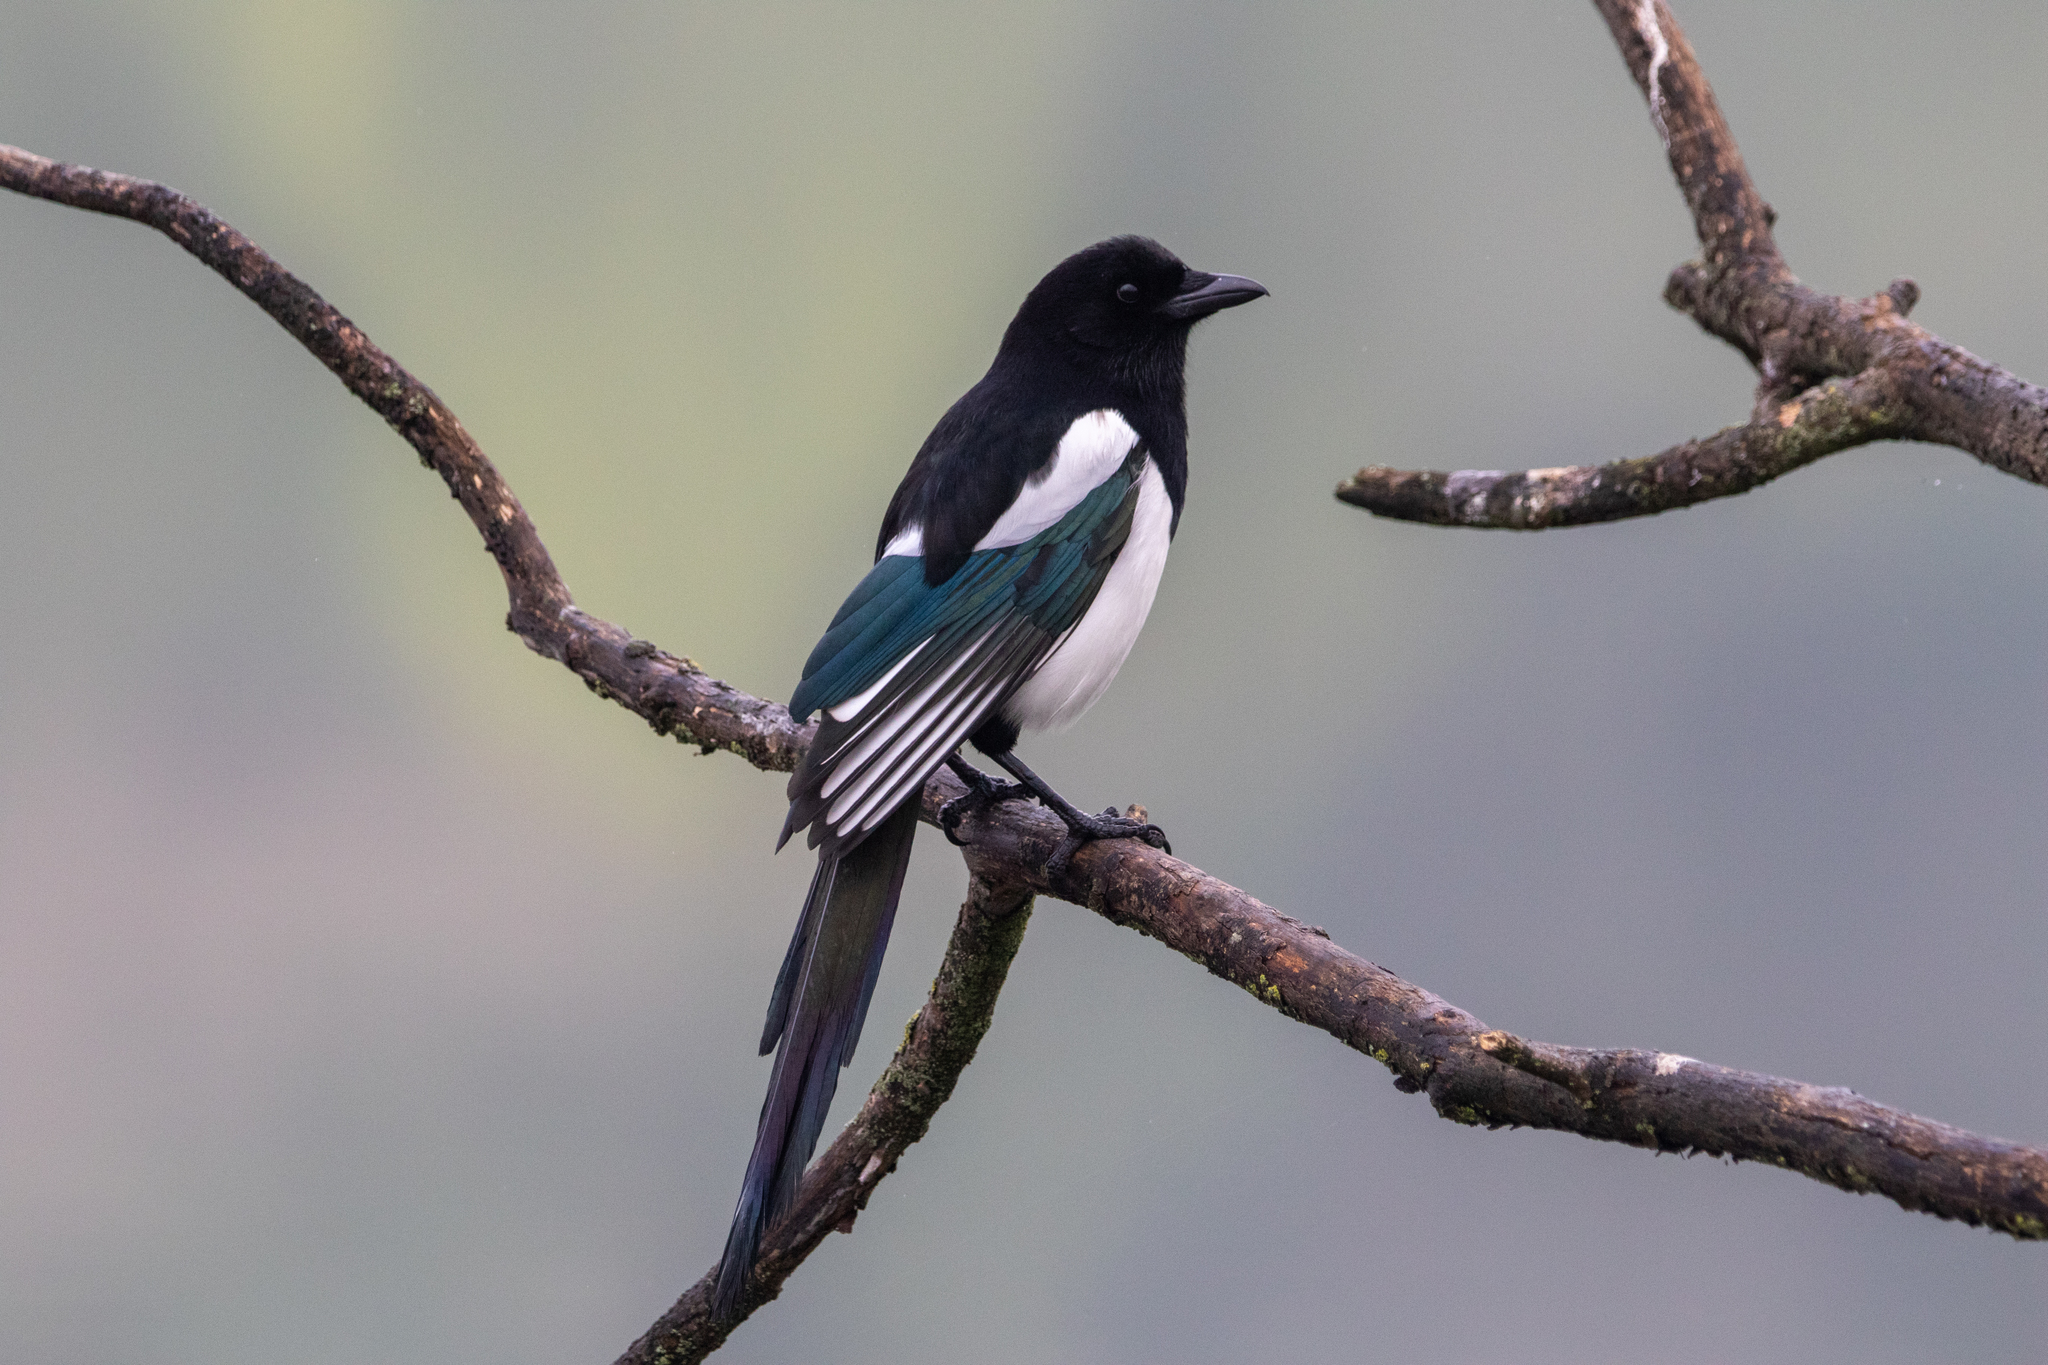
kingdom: Animalia
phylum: Chordata
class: Aves
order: Passeriformes
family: Corvidae
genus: Pica
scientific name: Pica pica
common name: Eurasian magpie
